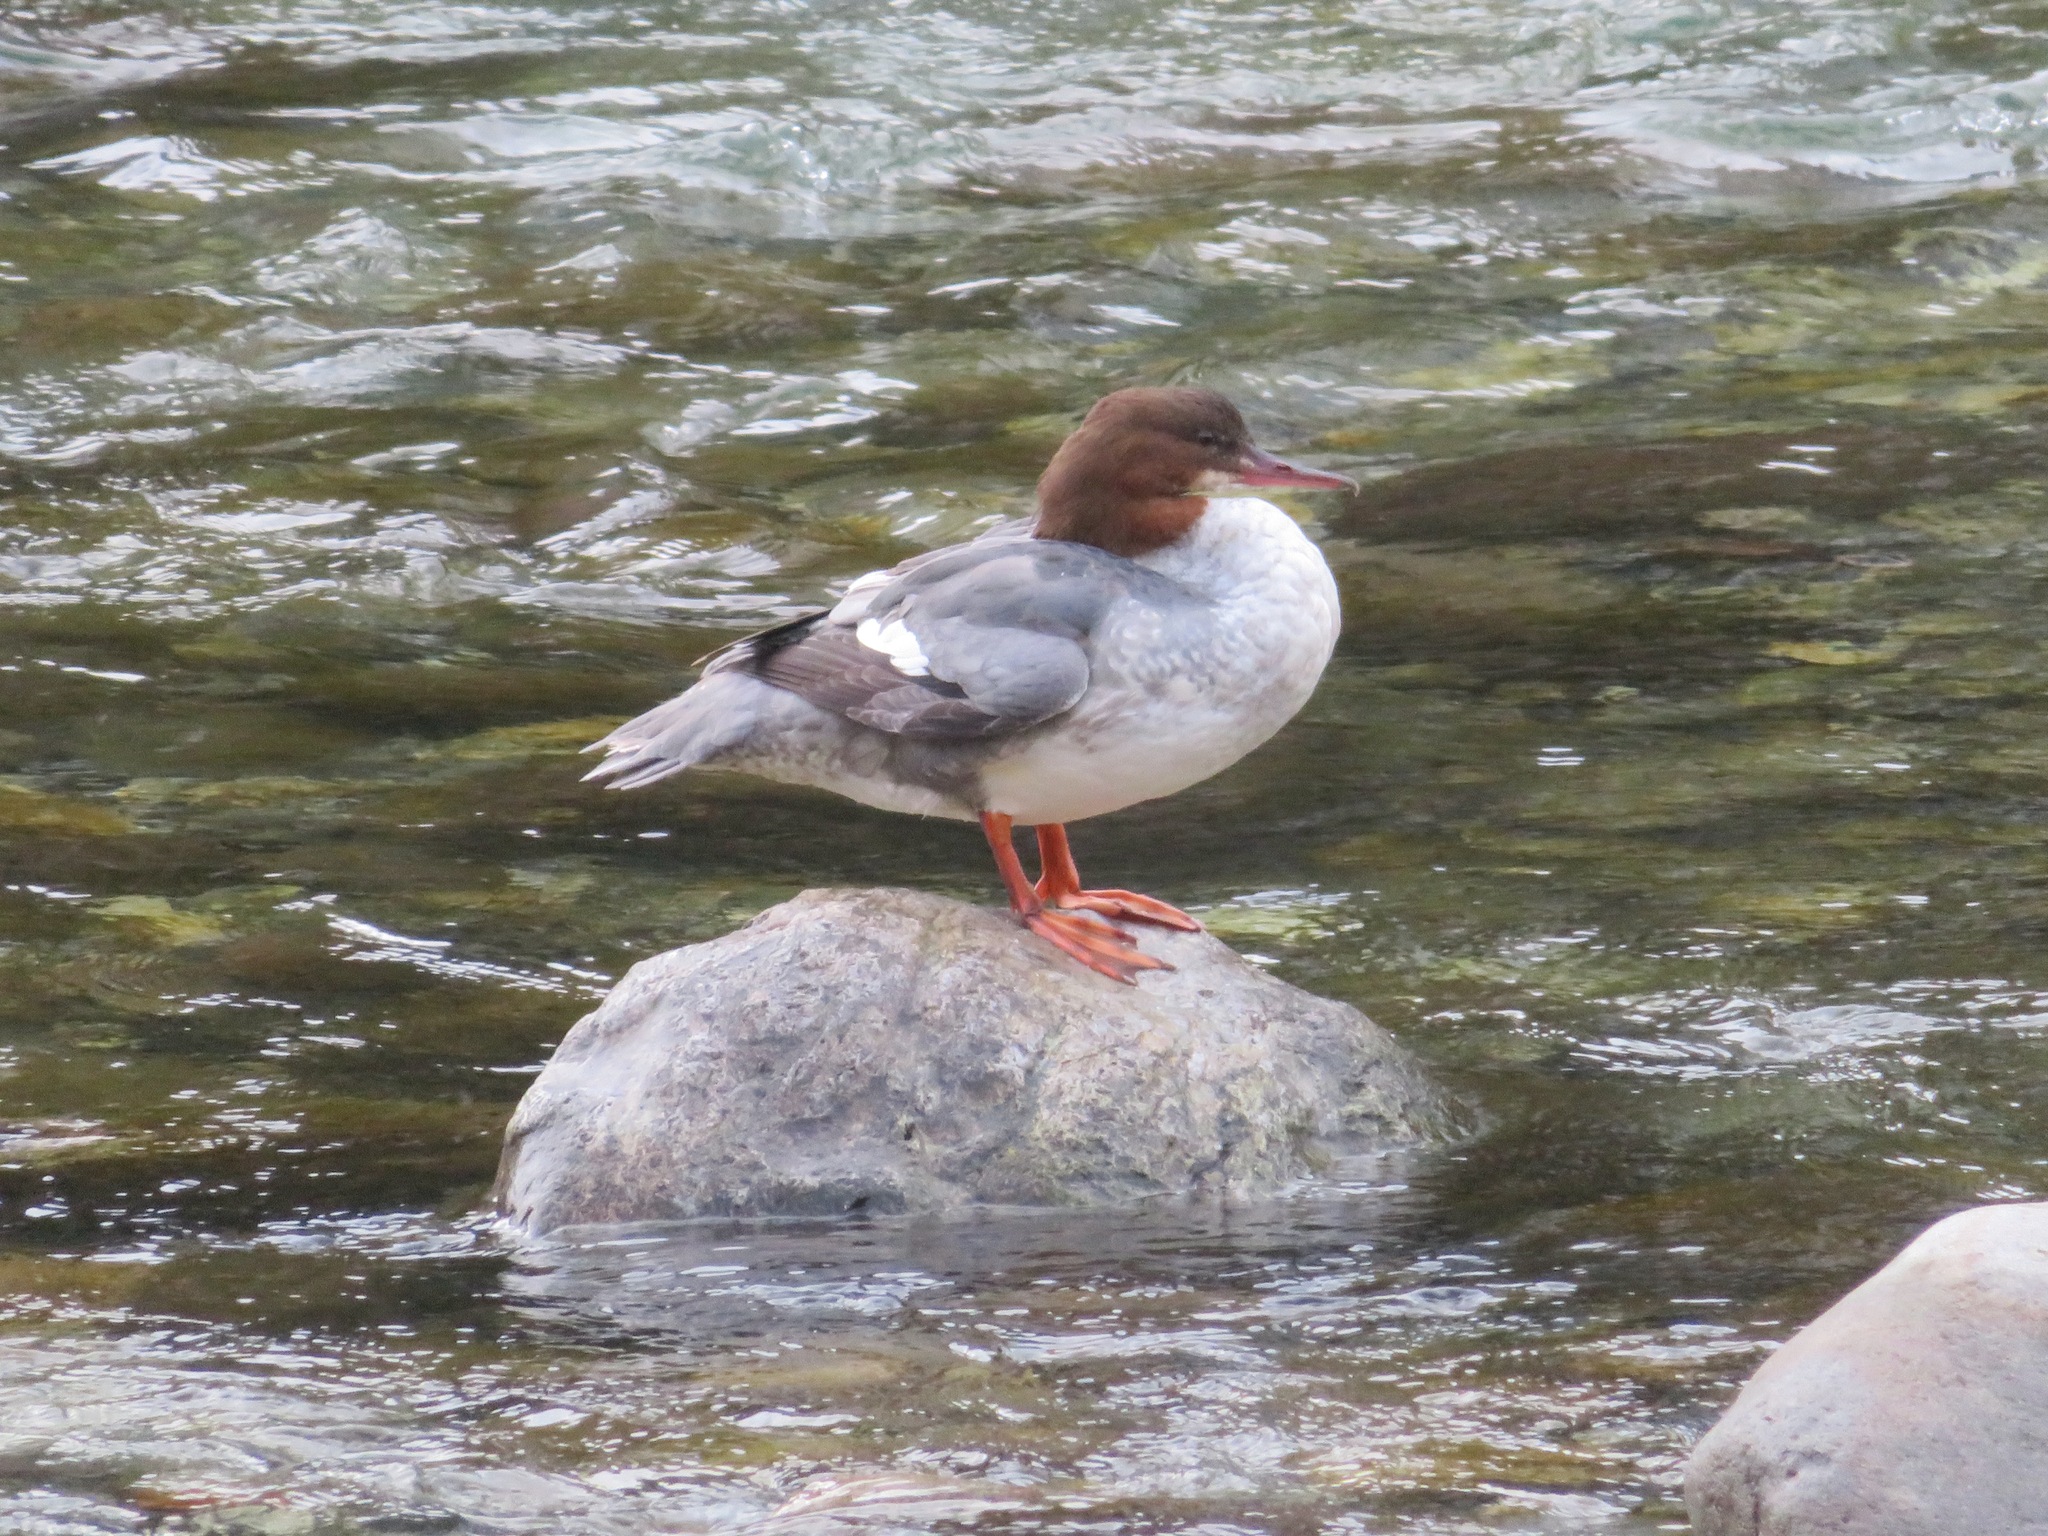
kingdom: Animalia
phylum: Chordata
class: Aves
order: Anseriformes
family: Anatidae
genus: Mergus
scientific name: Mergus merganser
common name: Common merganser
